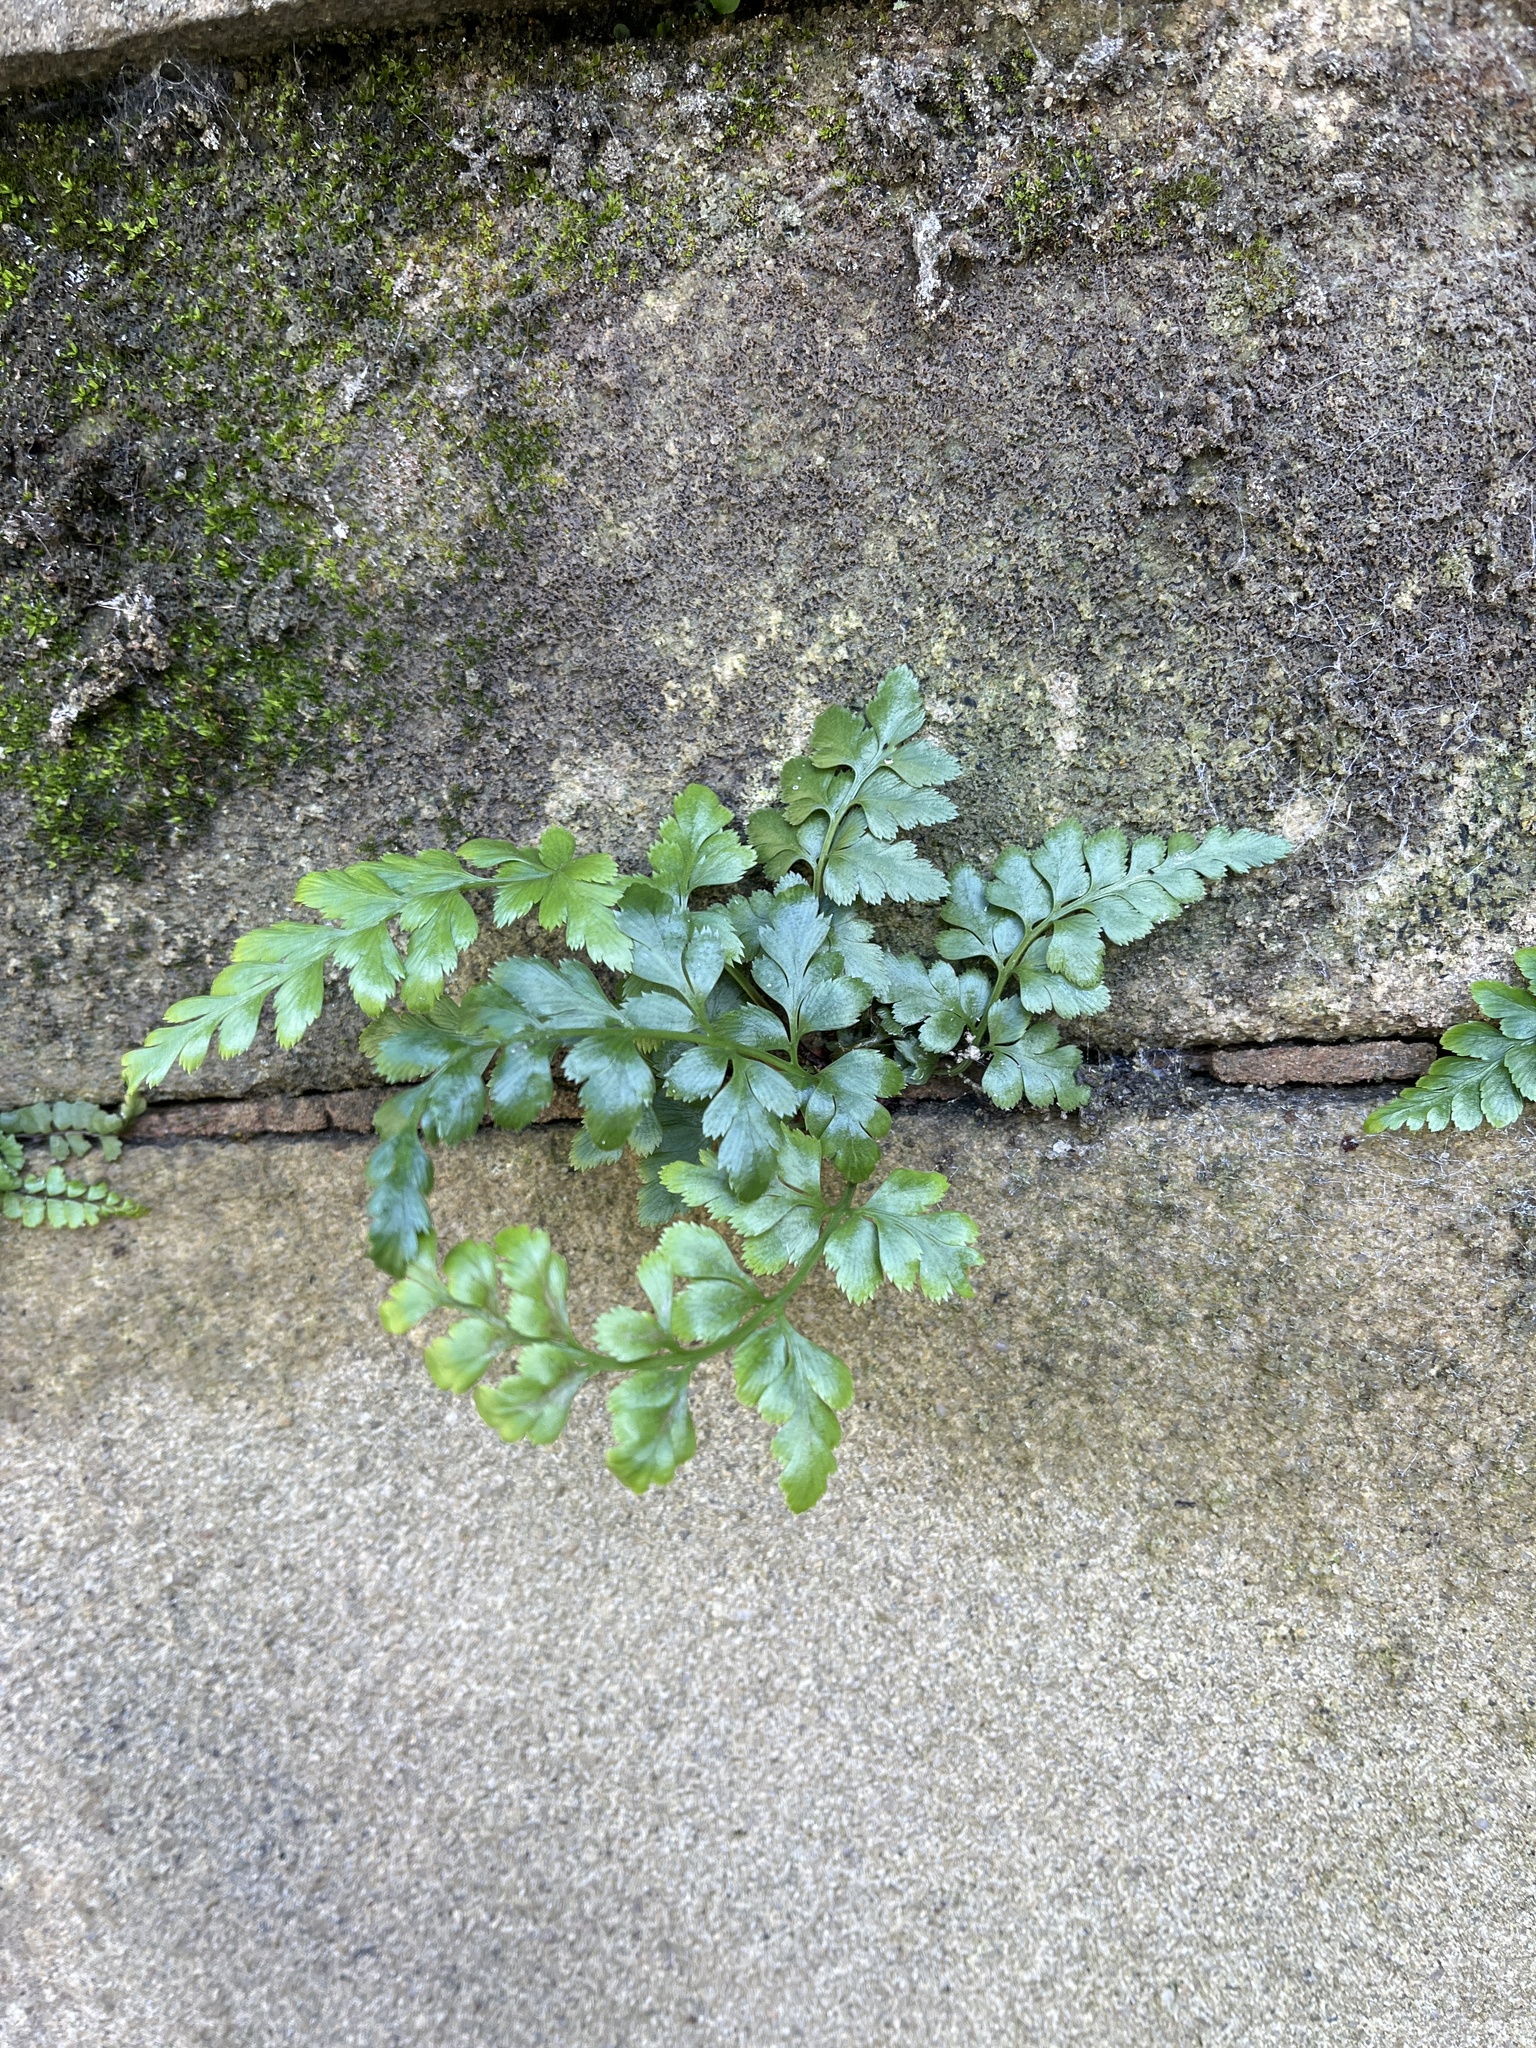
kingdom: Plantae
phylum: Tracheophyta
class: Polypodiopsida
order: Polypodiales
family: Aspleniaceae
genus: Asplenium
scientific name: Asplenium adiantum-nigrum
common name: Black spleenwort
